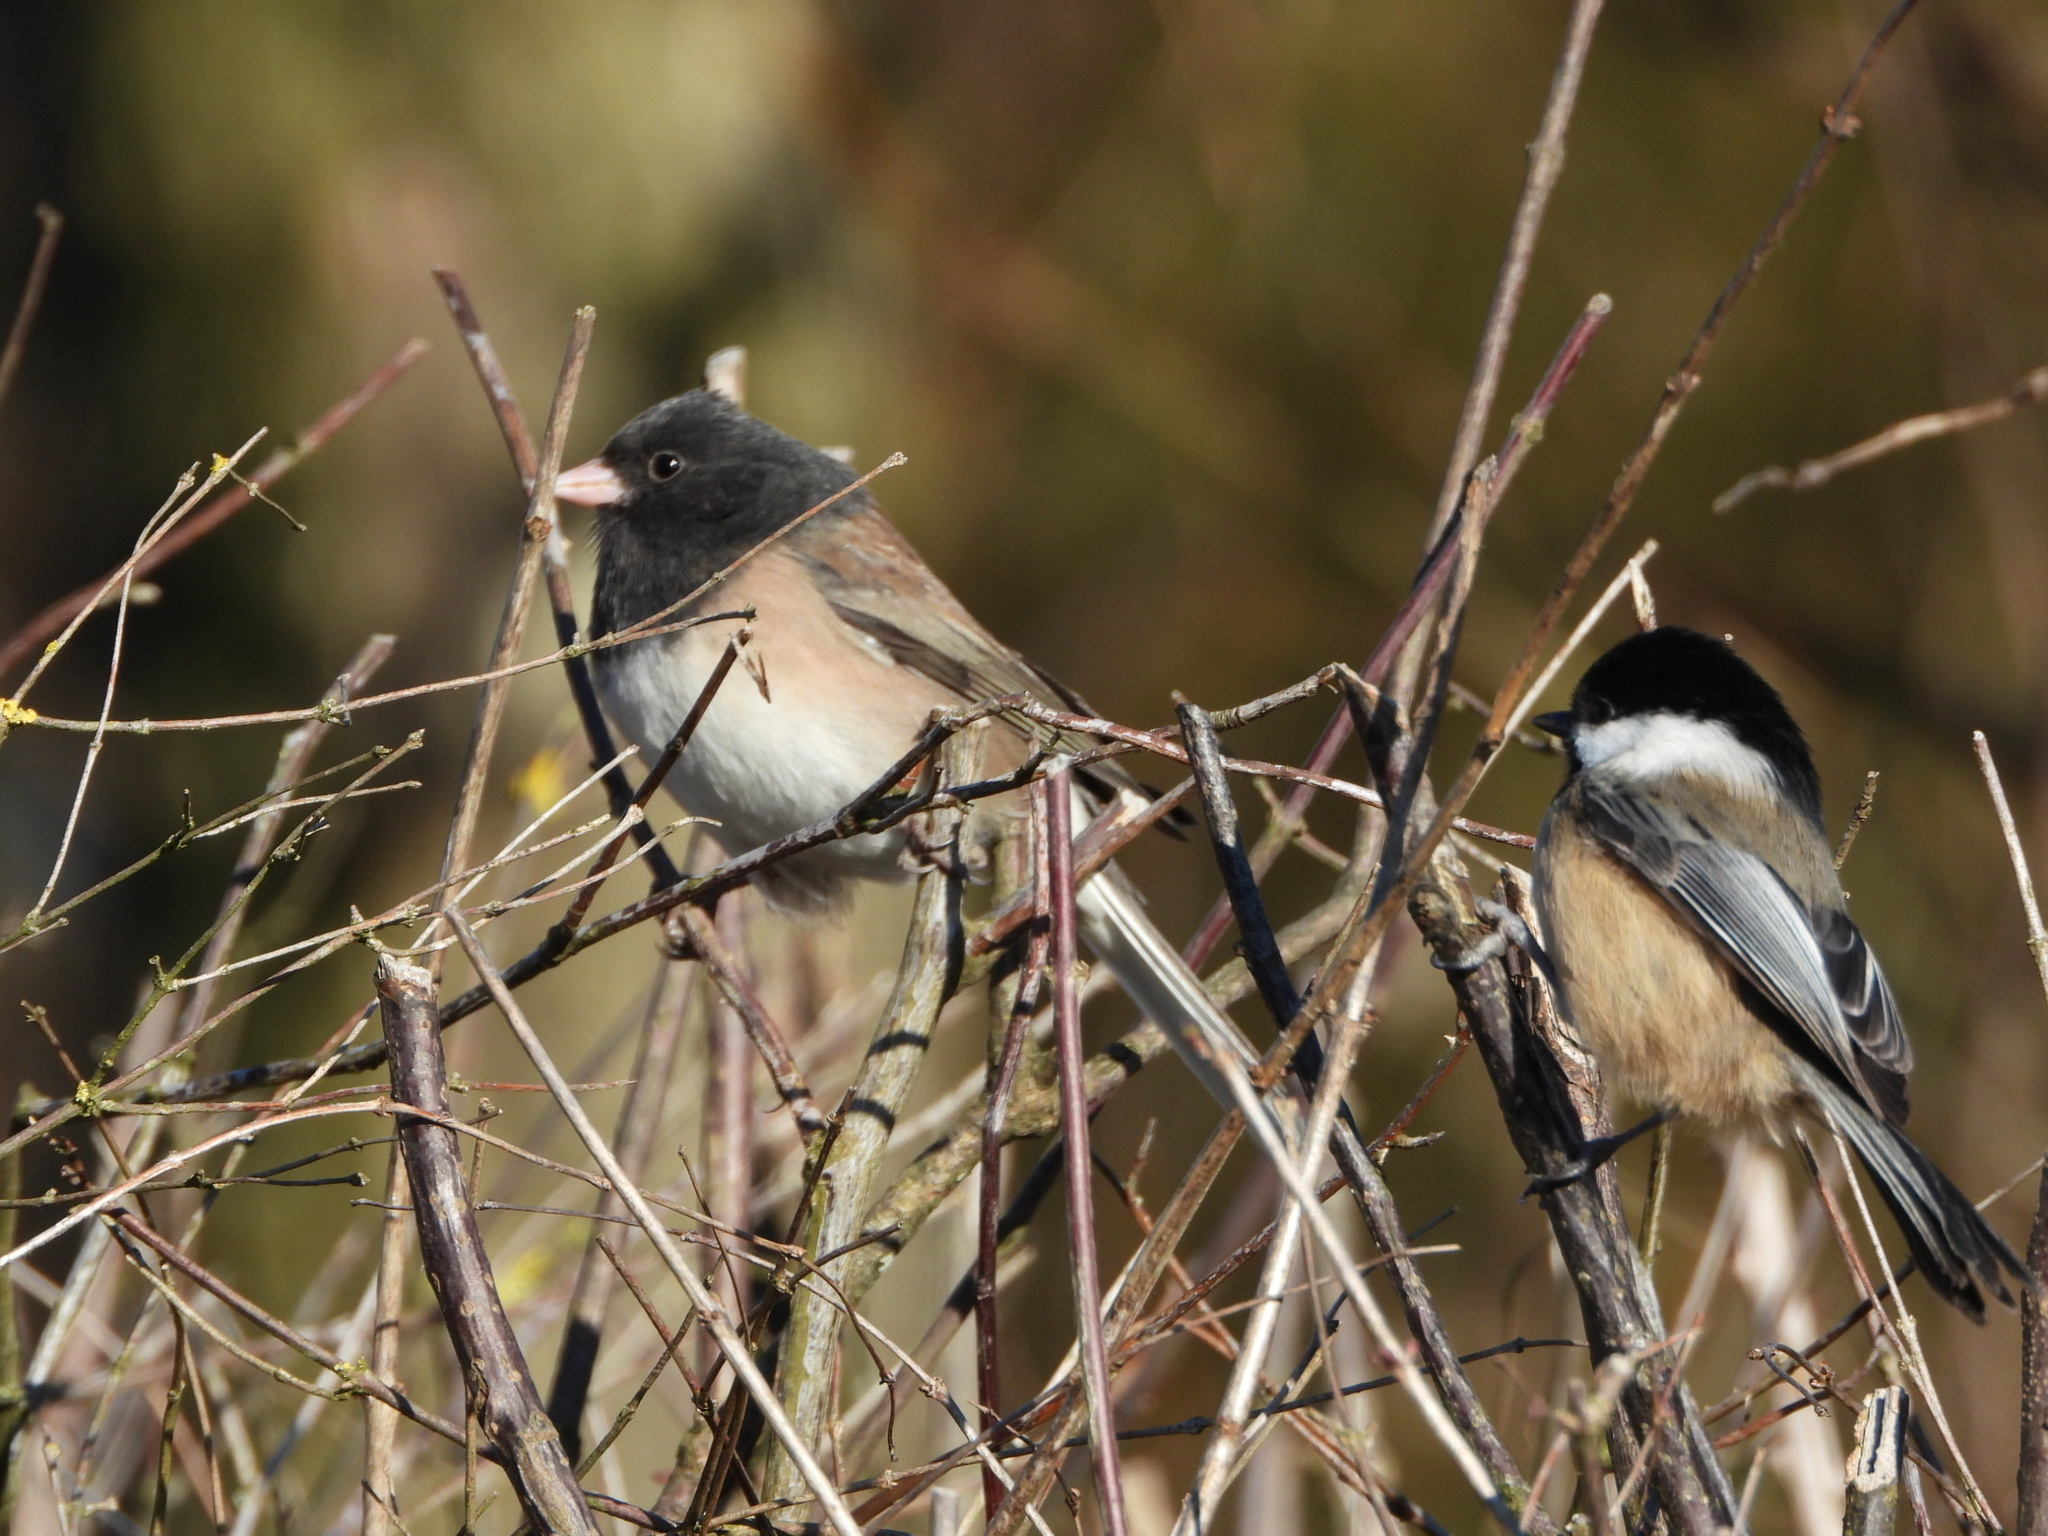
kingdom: Animalia
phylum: Chordata
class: Aves
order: Passeriformes
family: Passerellidae
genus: Junco
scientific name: Junco hyemalis
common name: Dark-eyed junco
